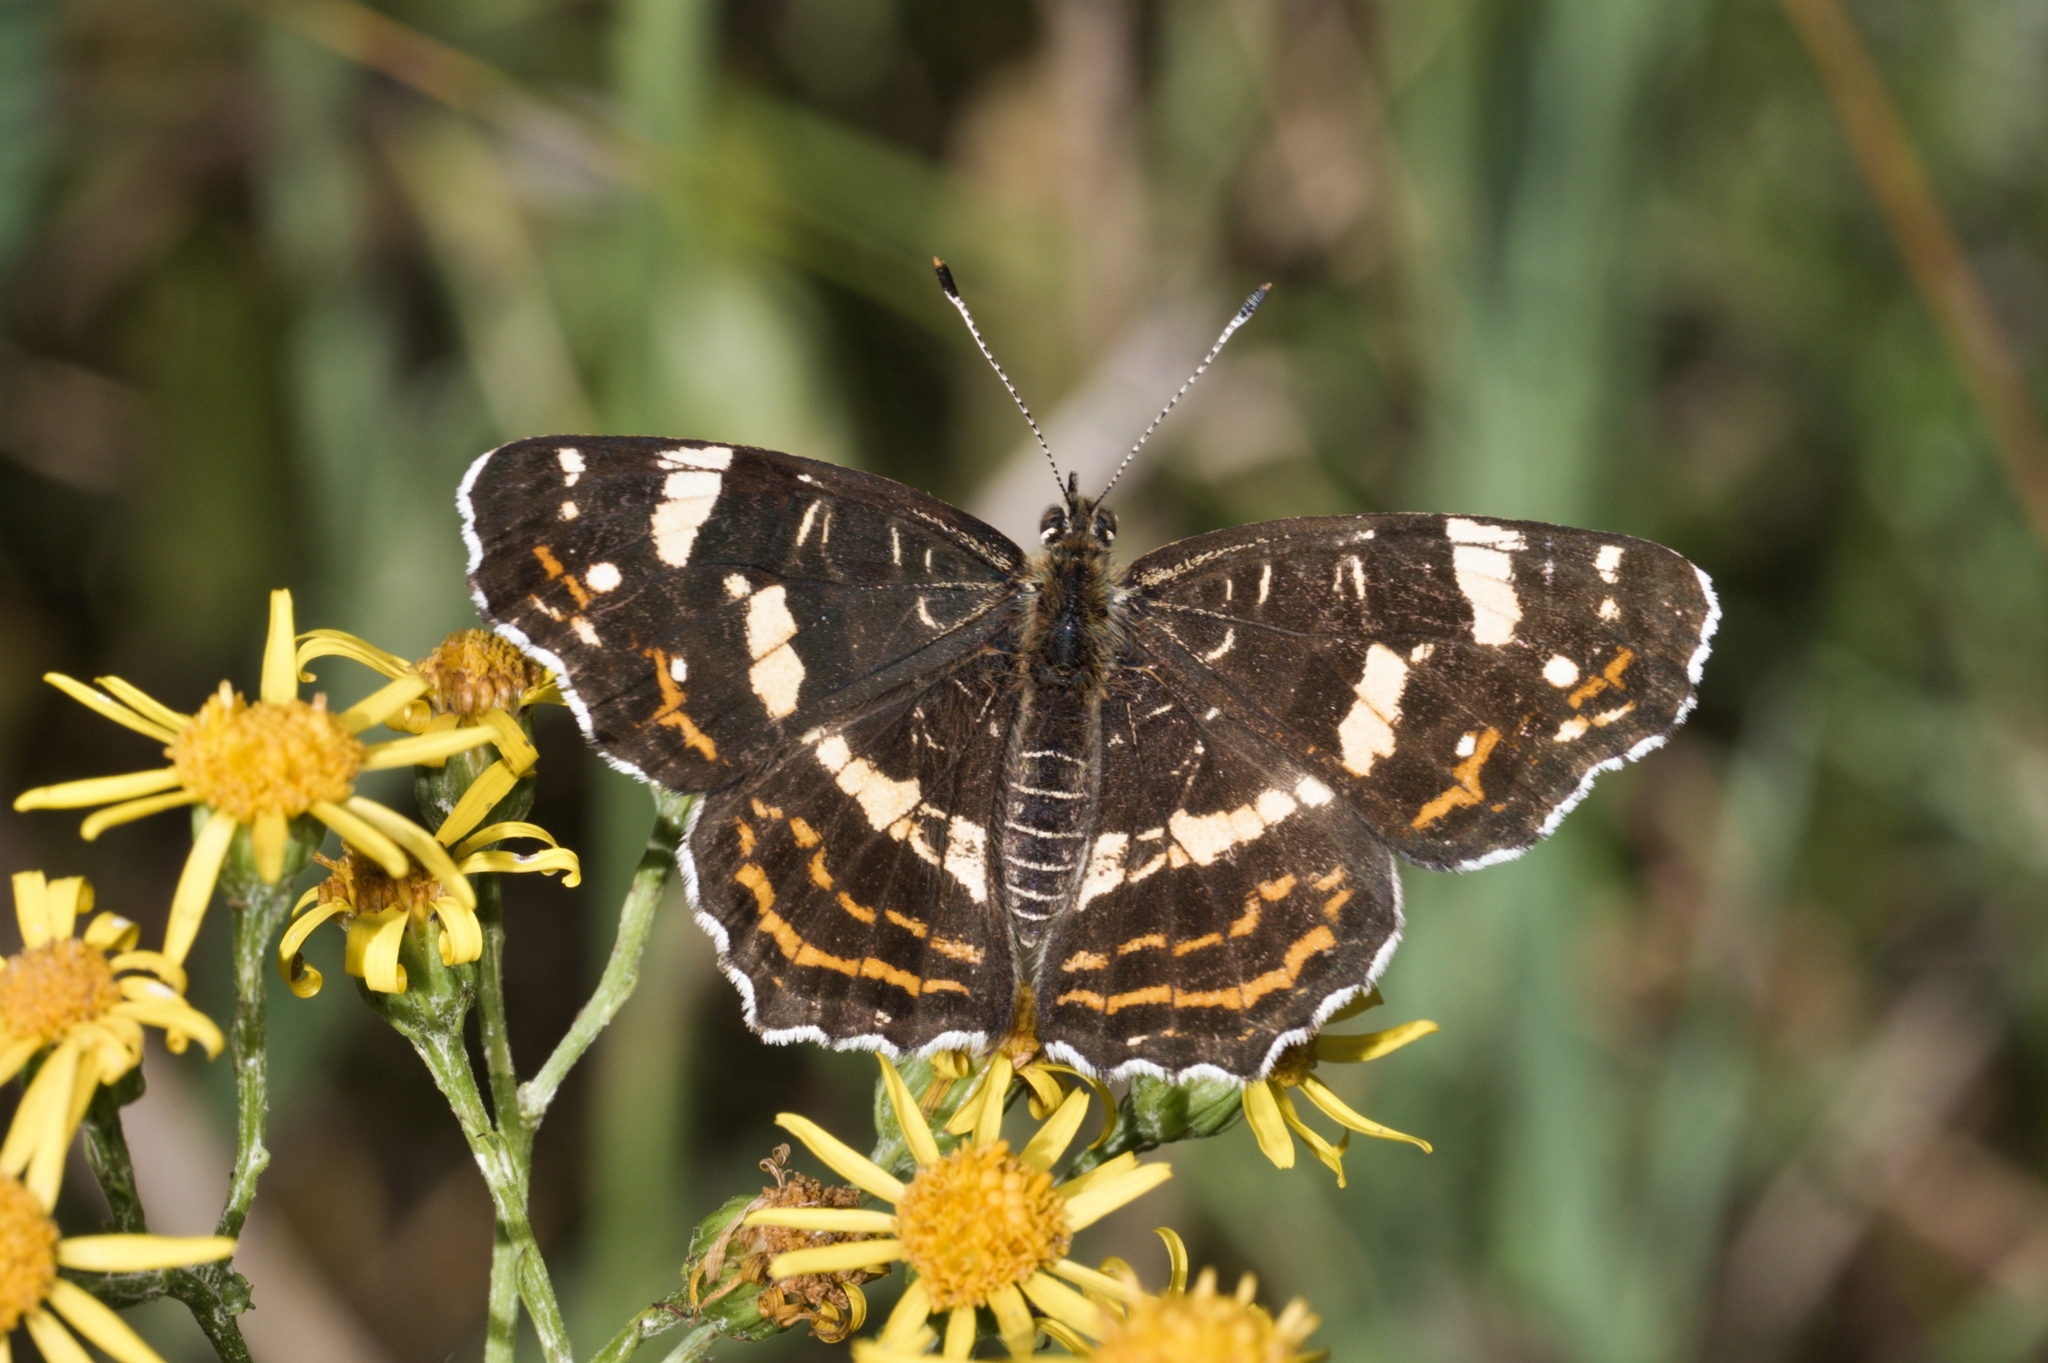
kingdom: Animalia
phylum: Arthropoda
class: Insecta
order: Lepidoptera
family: Nymphalidae
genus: Araschnia
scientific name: Araschnia levana
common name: Map butterfly
